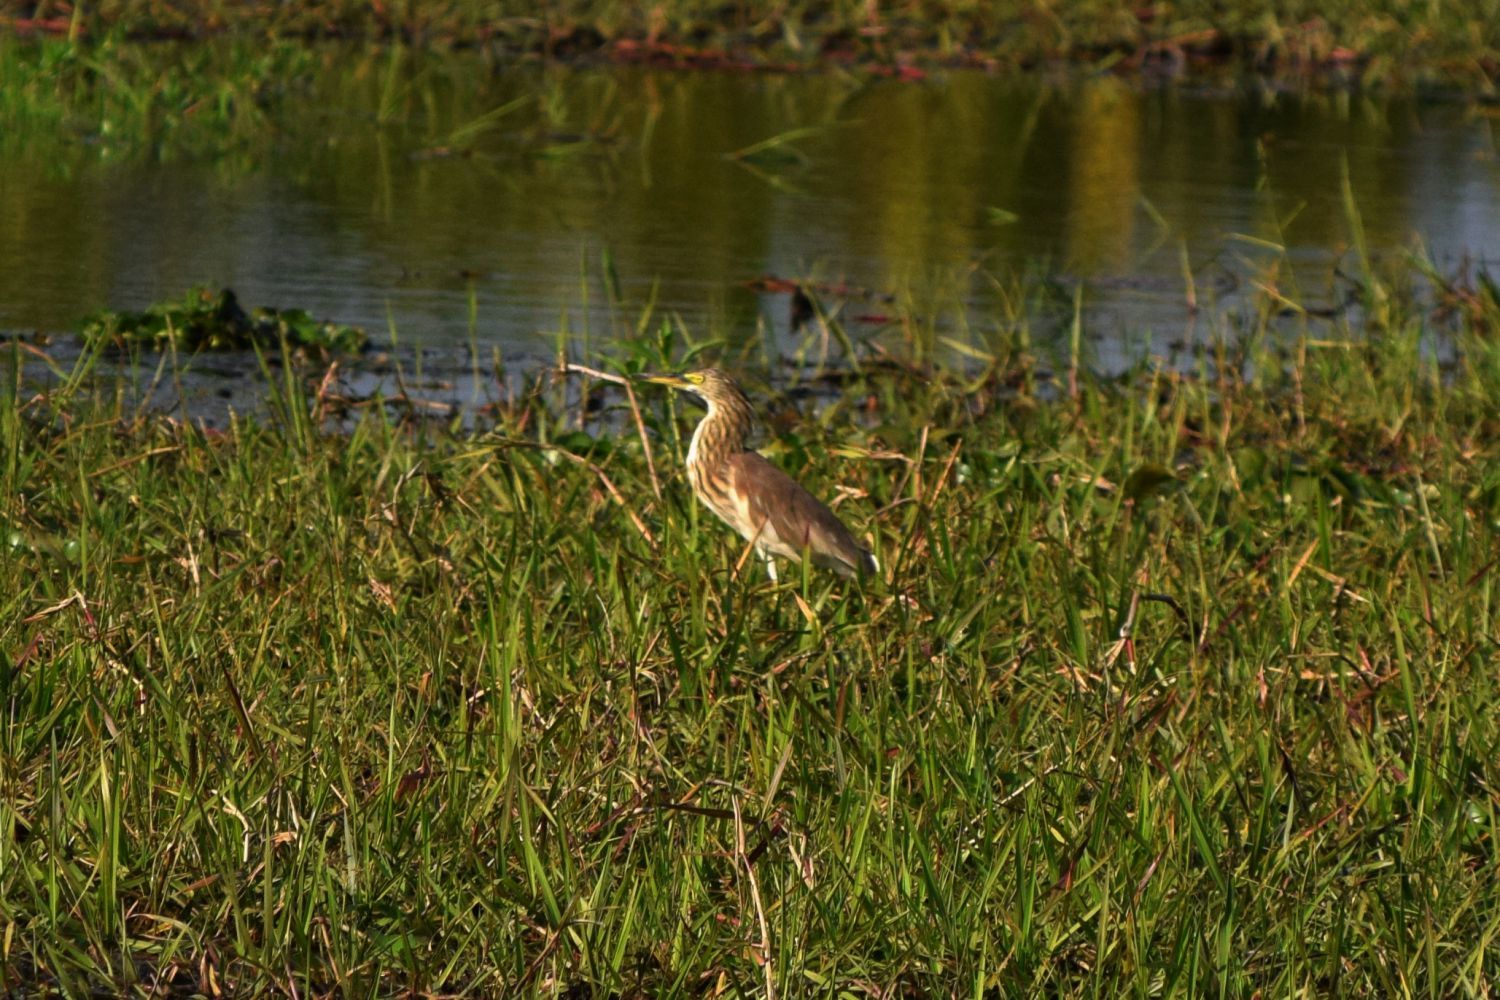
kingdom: Animalia
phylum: Chordata
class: Aves
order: Pelecaniformes
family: Ardeidae
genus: Ardeola
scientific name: Ardeola grayii
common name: Indian pond heron
